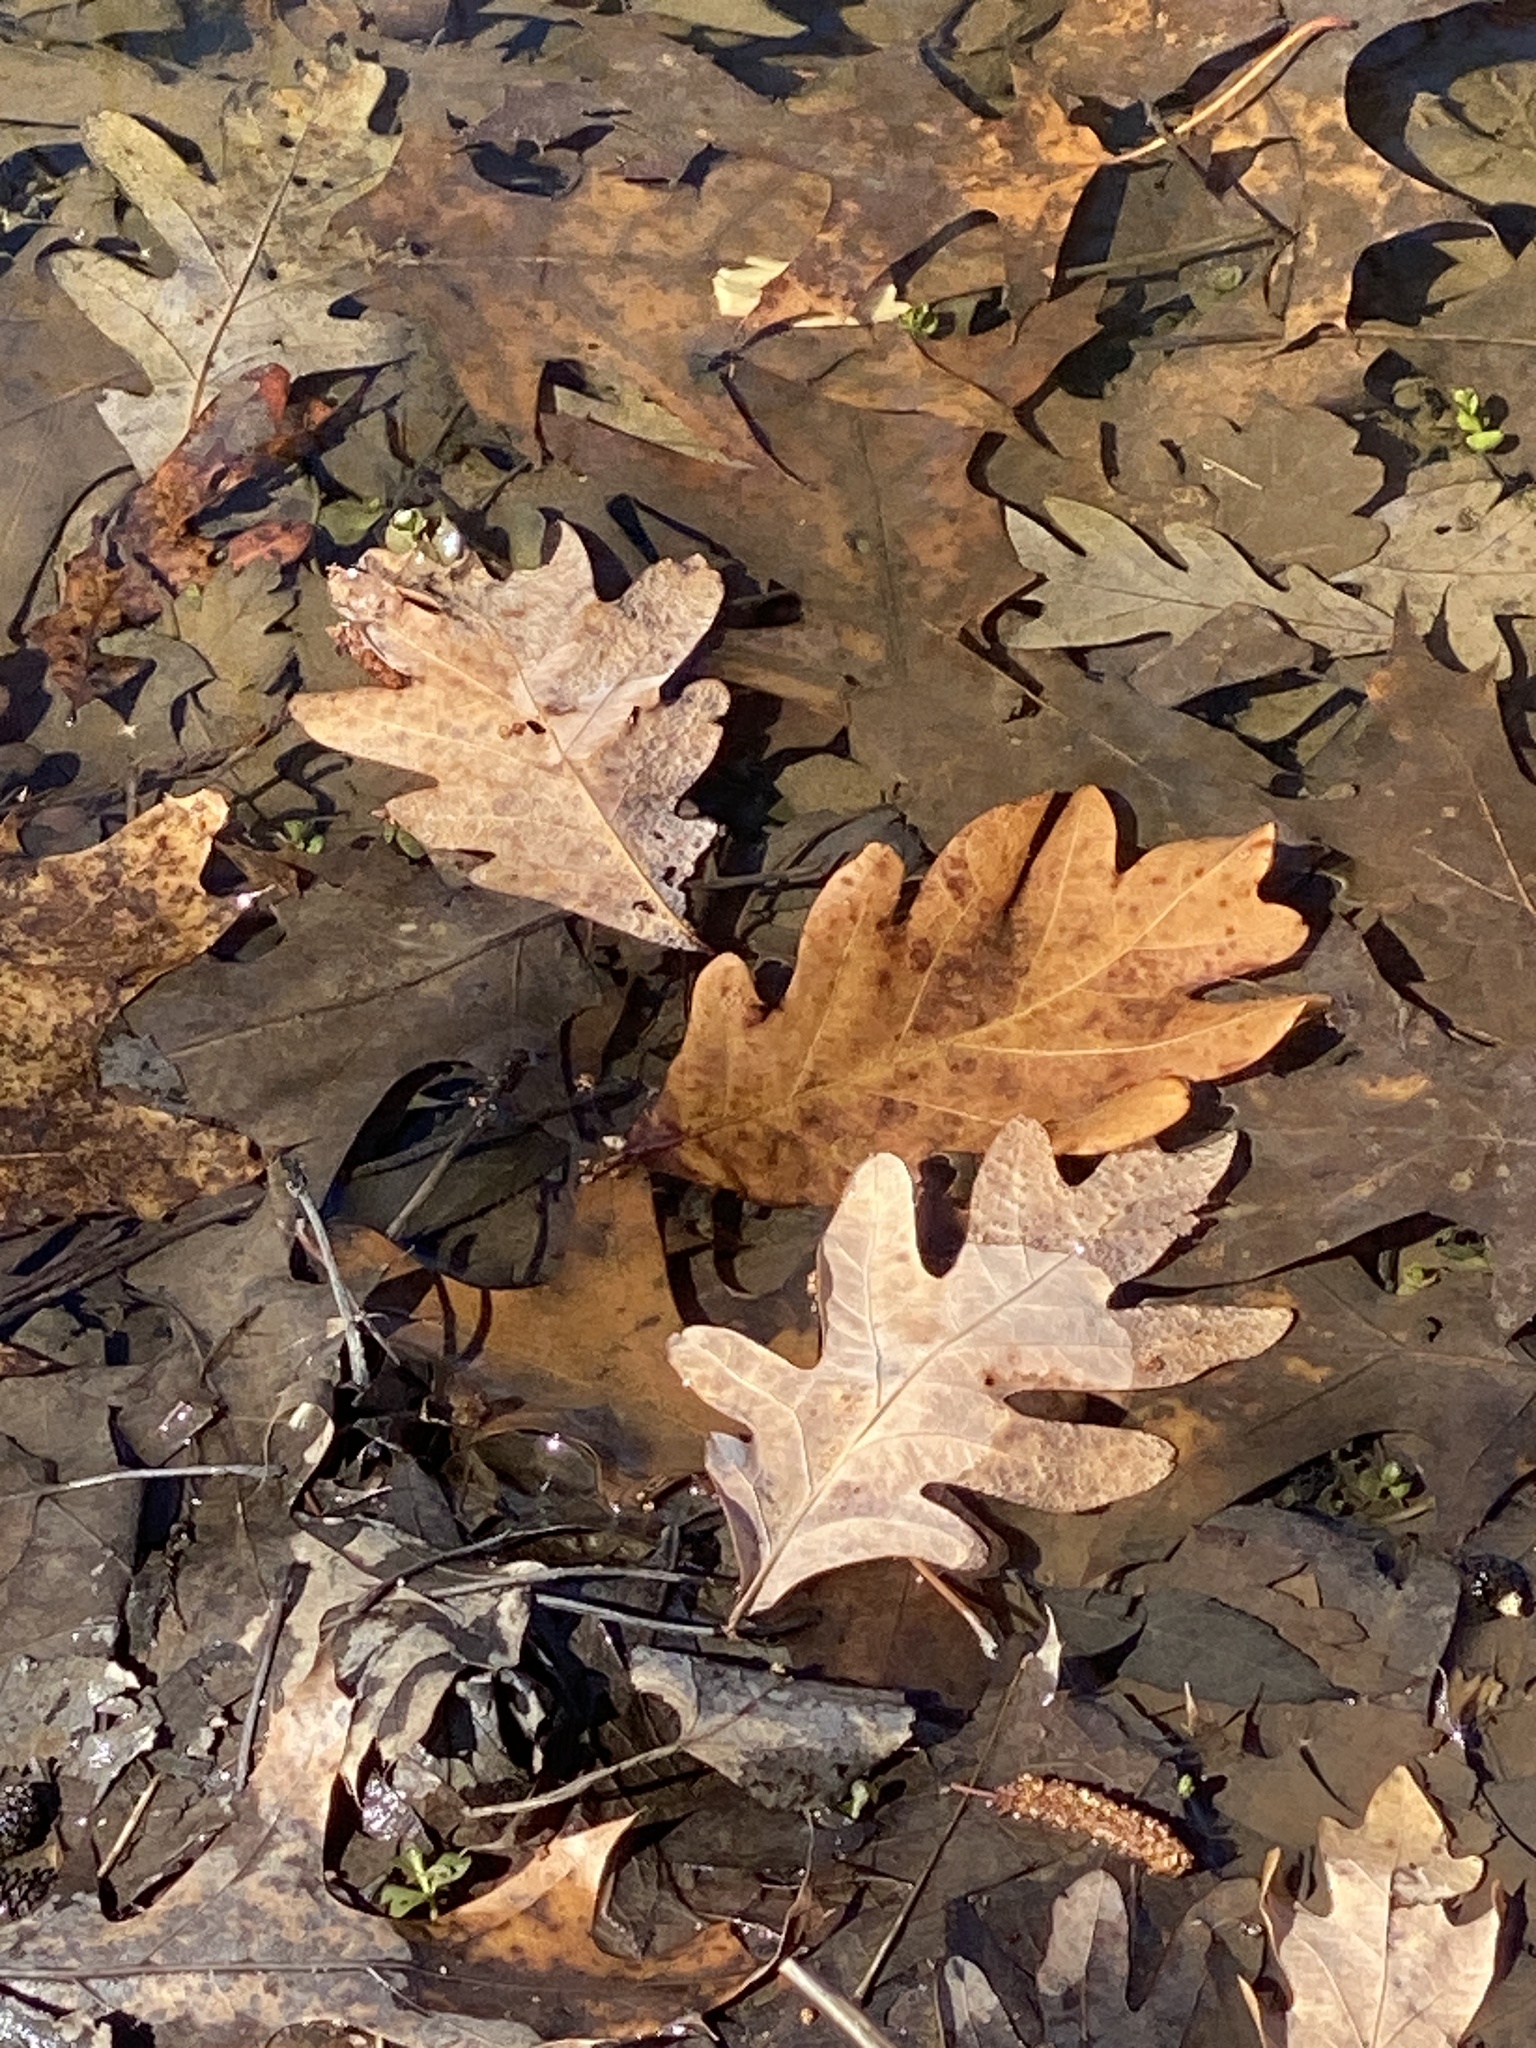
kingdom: Plantae
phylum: Tracheophyta
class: Magnoliopsida
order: Fagales
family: Fagaceae
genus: Quercus
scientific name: Quercus alba
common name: White oak
